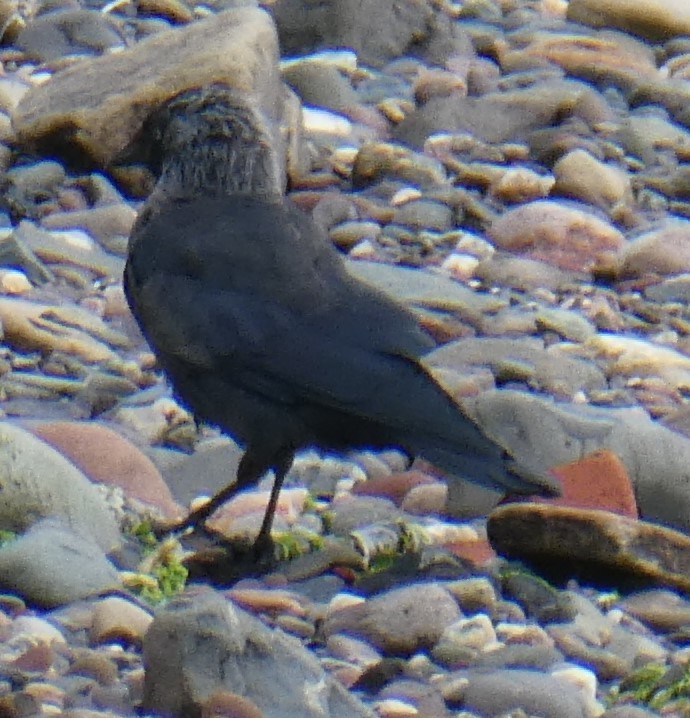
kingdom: Animalia
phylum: Chordata
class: Aves
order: Passeriformes
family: Corvidae
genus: Coloeus
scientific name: Coloeus monedula
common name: Western jackdaw
